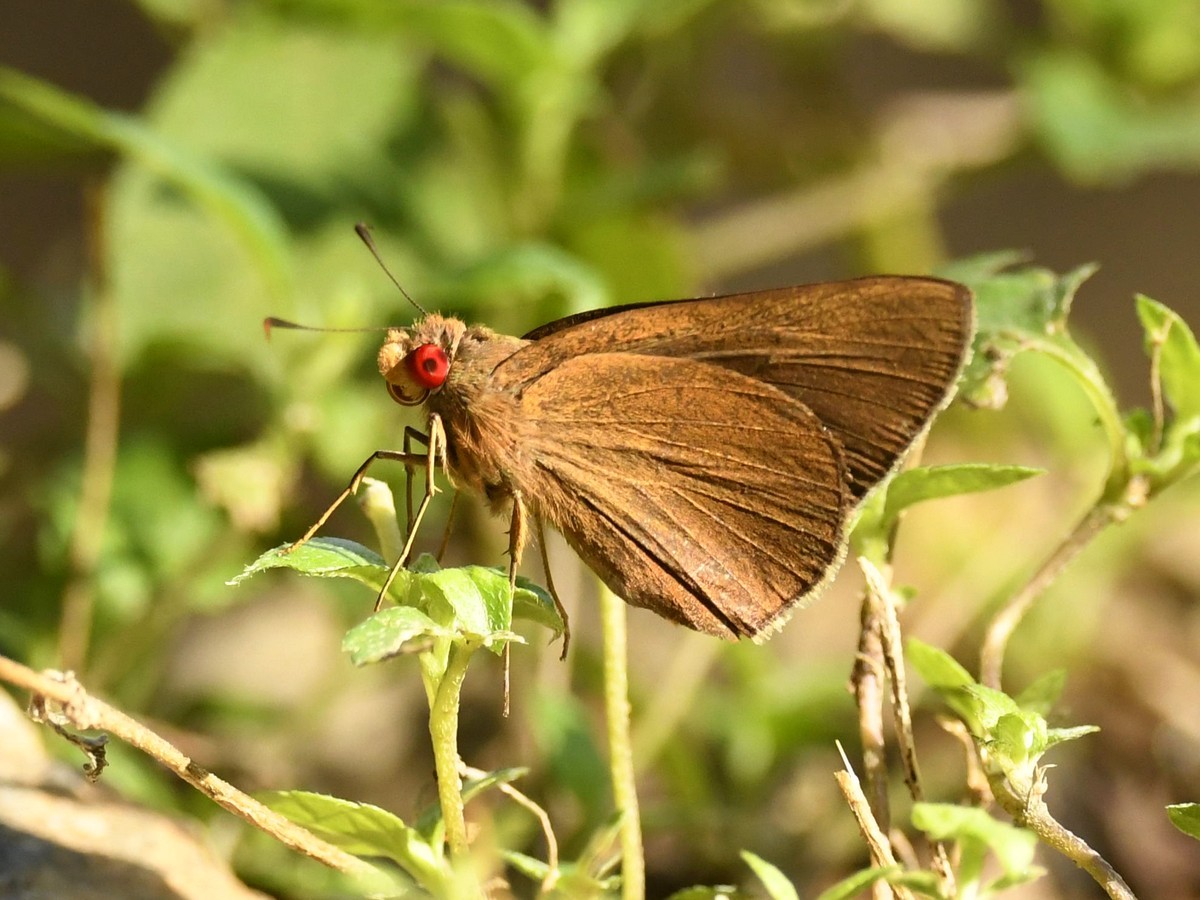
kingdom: Animalia
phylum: Arthropoda
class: Insecta
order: Lepidoptera
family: Hesperiidae
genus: Matapa
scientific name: Matapa aria
